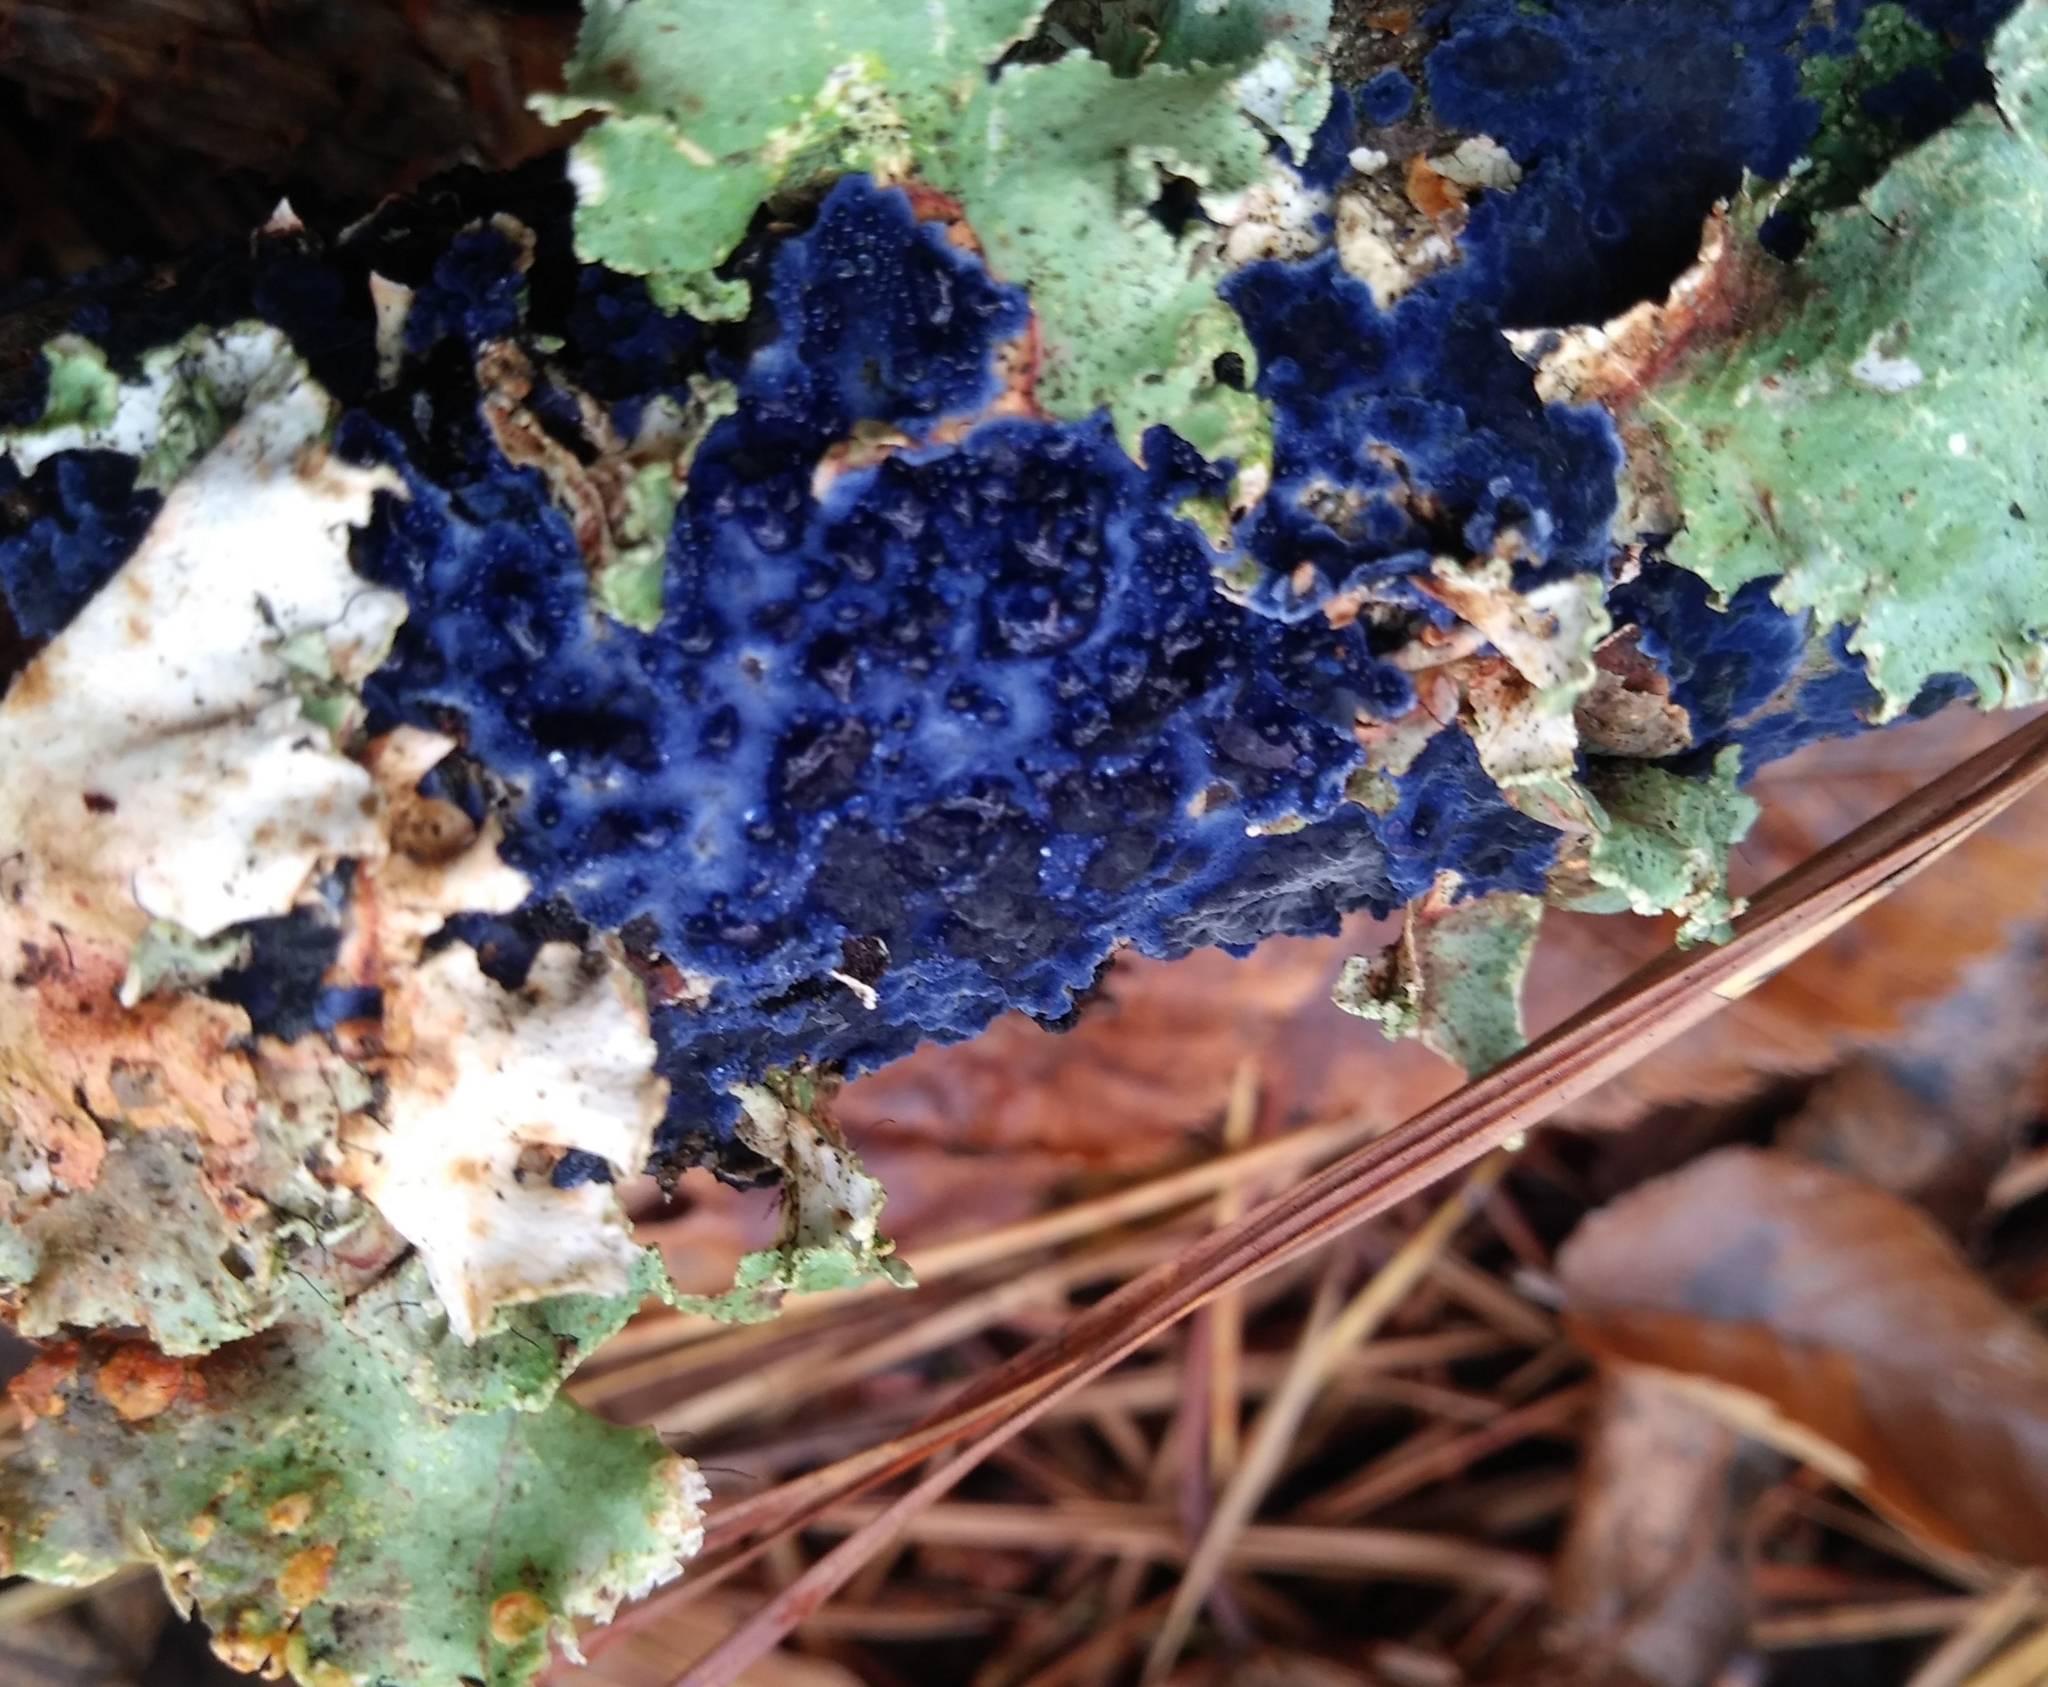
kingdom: Fungi
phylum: Basidiomycota
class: Agaricomycetes
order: Polyporales
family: Phanerochaetaceae
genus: Terana
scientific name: Terana coerulea
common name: Cobalt crust
